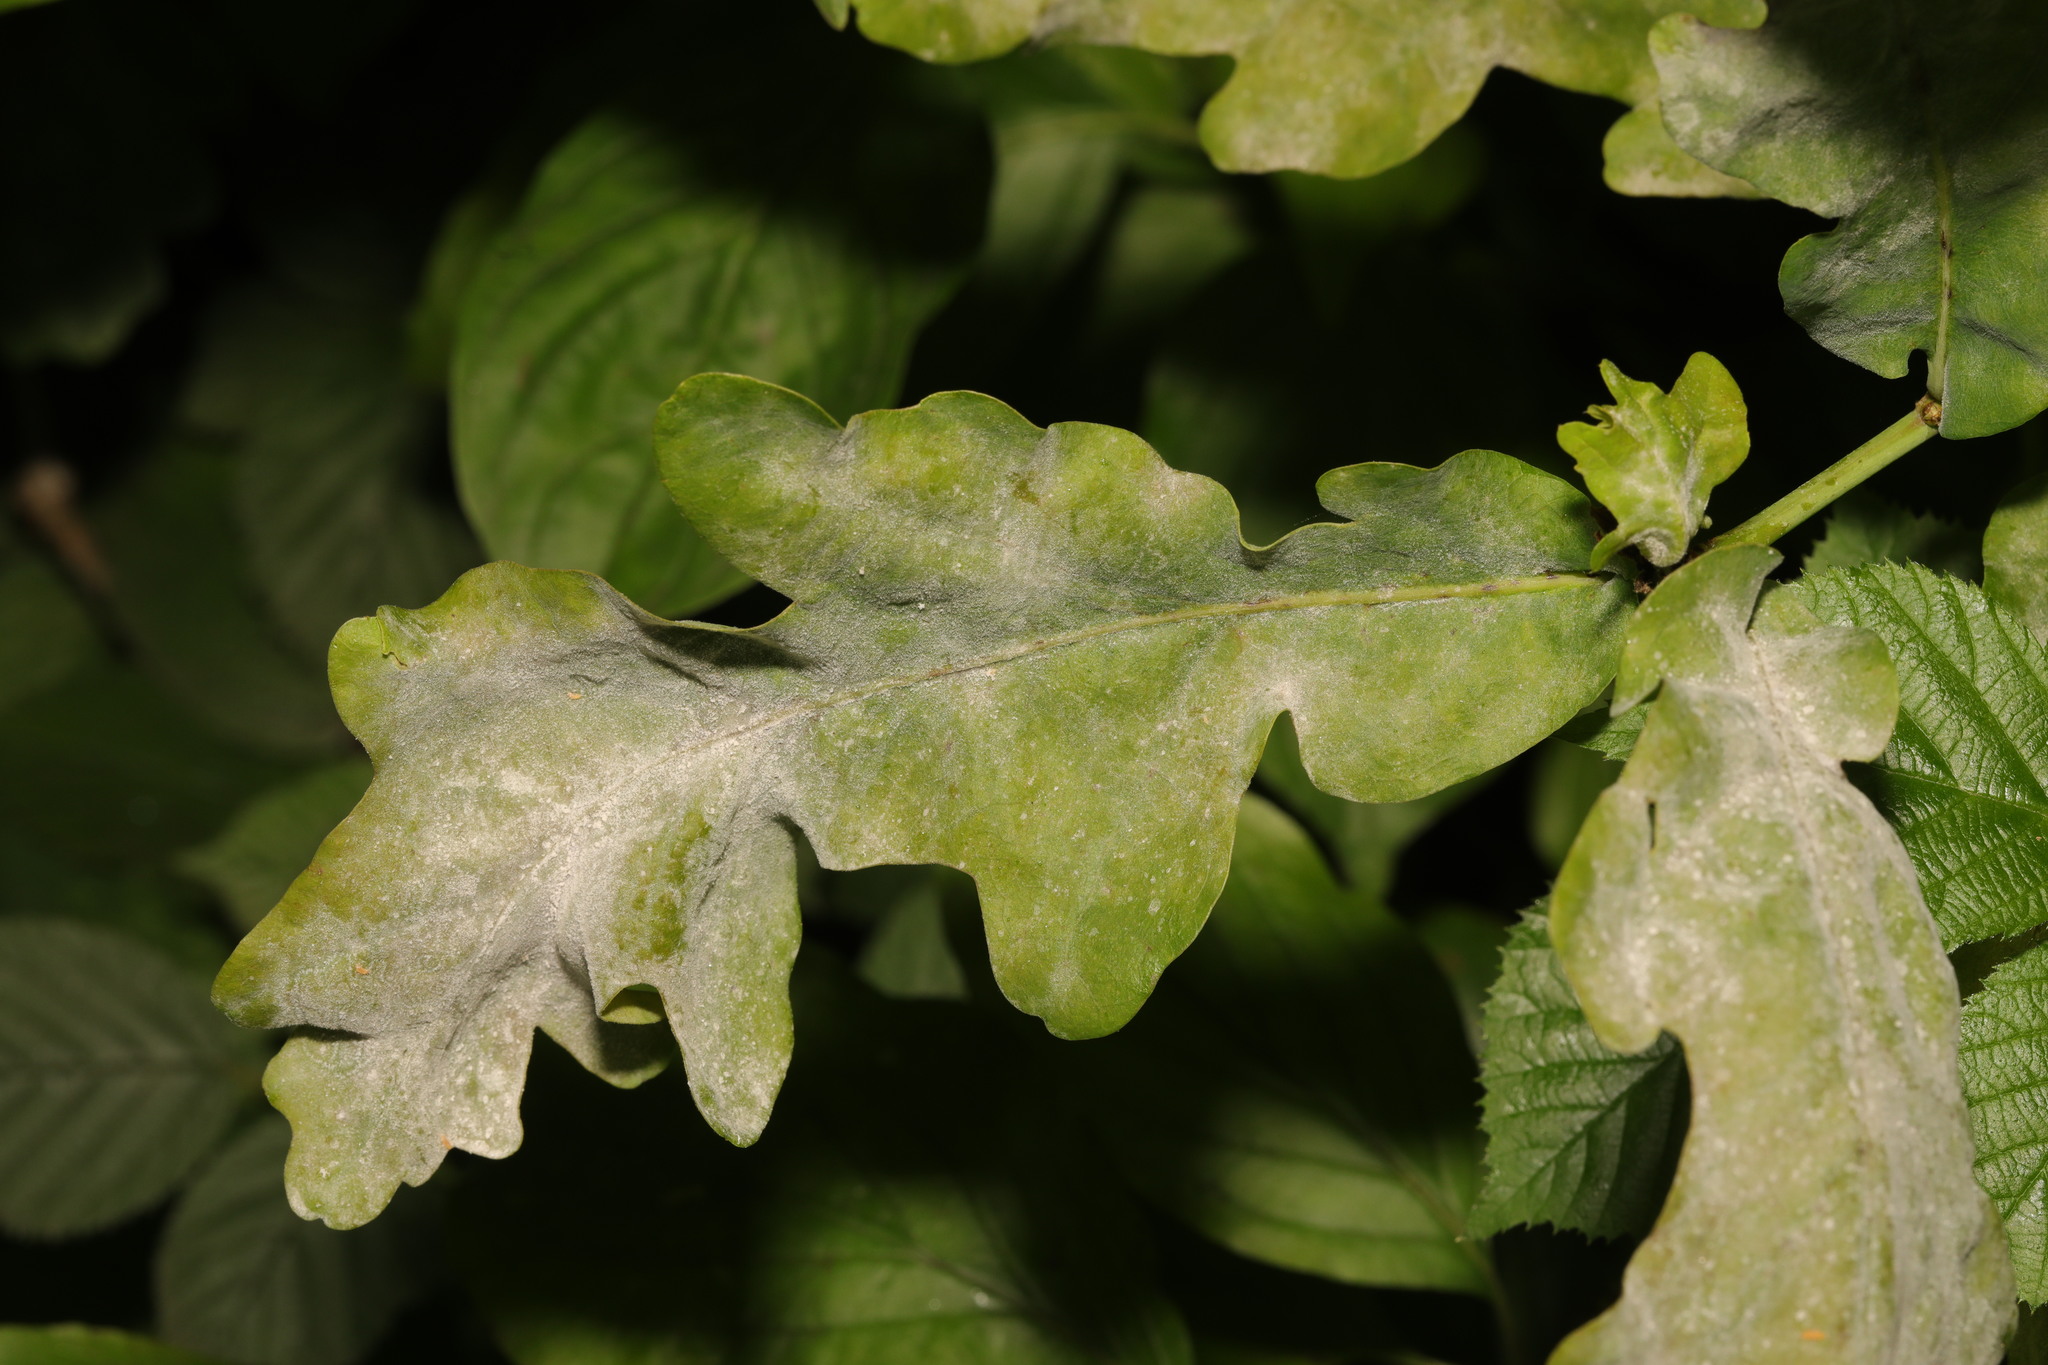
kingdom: Fungi
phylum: Ascomycota
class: Leotiomycetes
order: Helotiales
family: Erysiphaceae
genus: Erysiphe
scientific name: Erysiphe alphitoides
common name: Oak mildew
